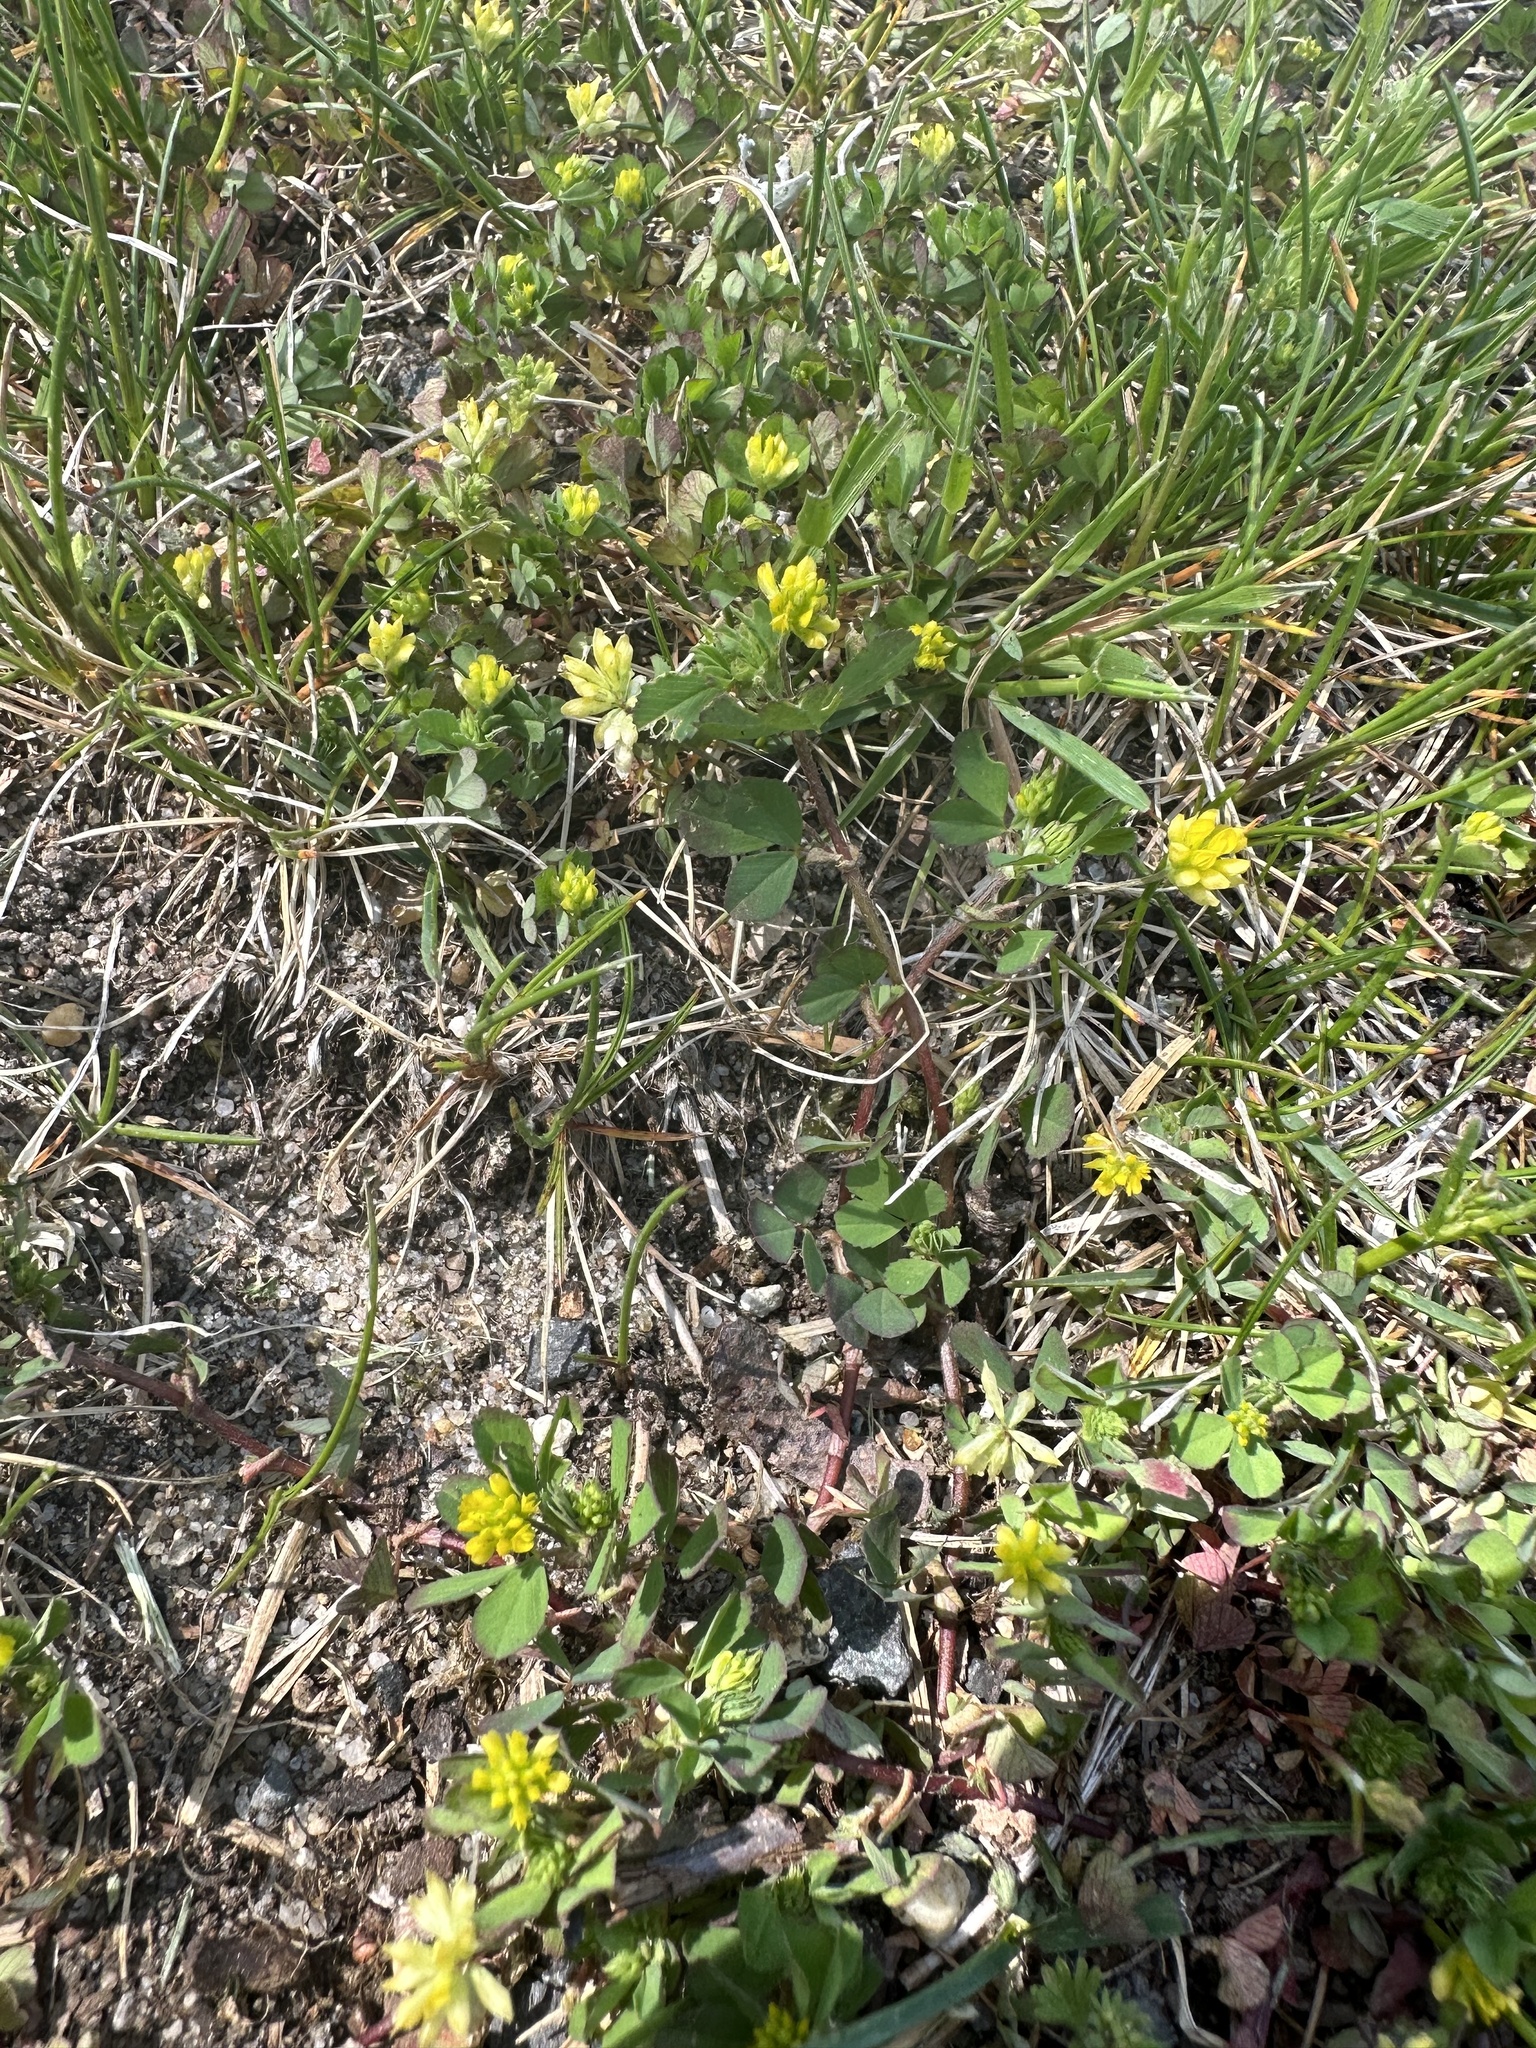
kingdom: Plantae
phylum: Tracheophyta
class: Magnoliopsida
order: Fabales
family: Fabaceae
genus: Trifolium
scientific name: Trifolium dubium
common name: Suckling clover
